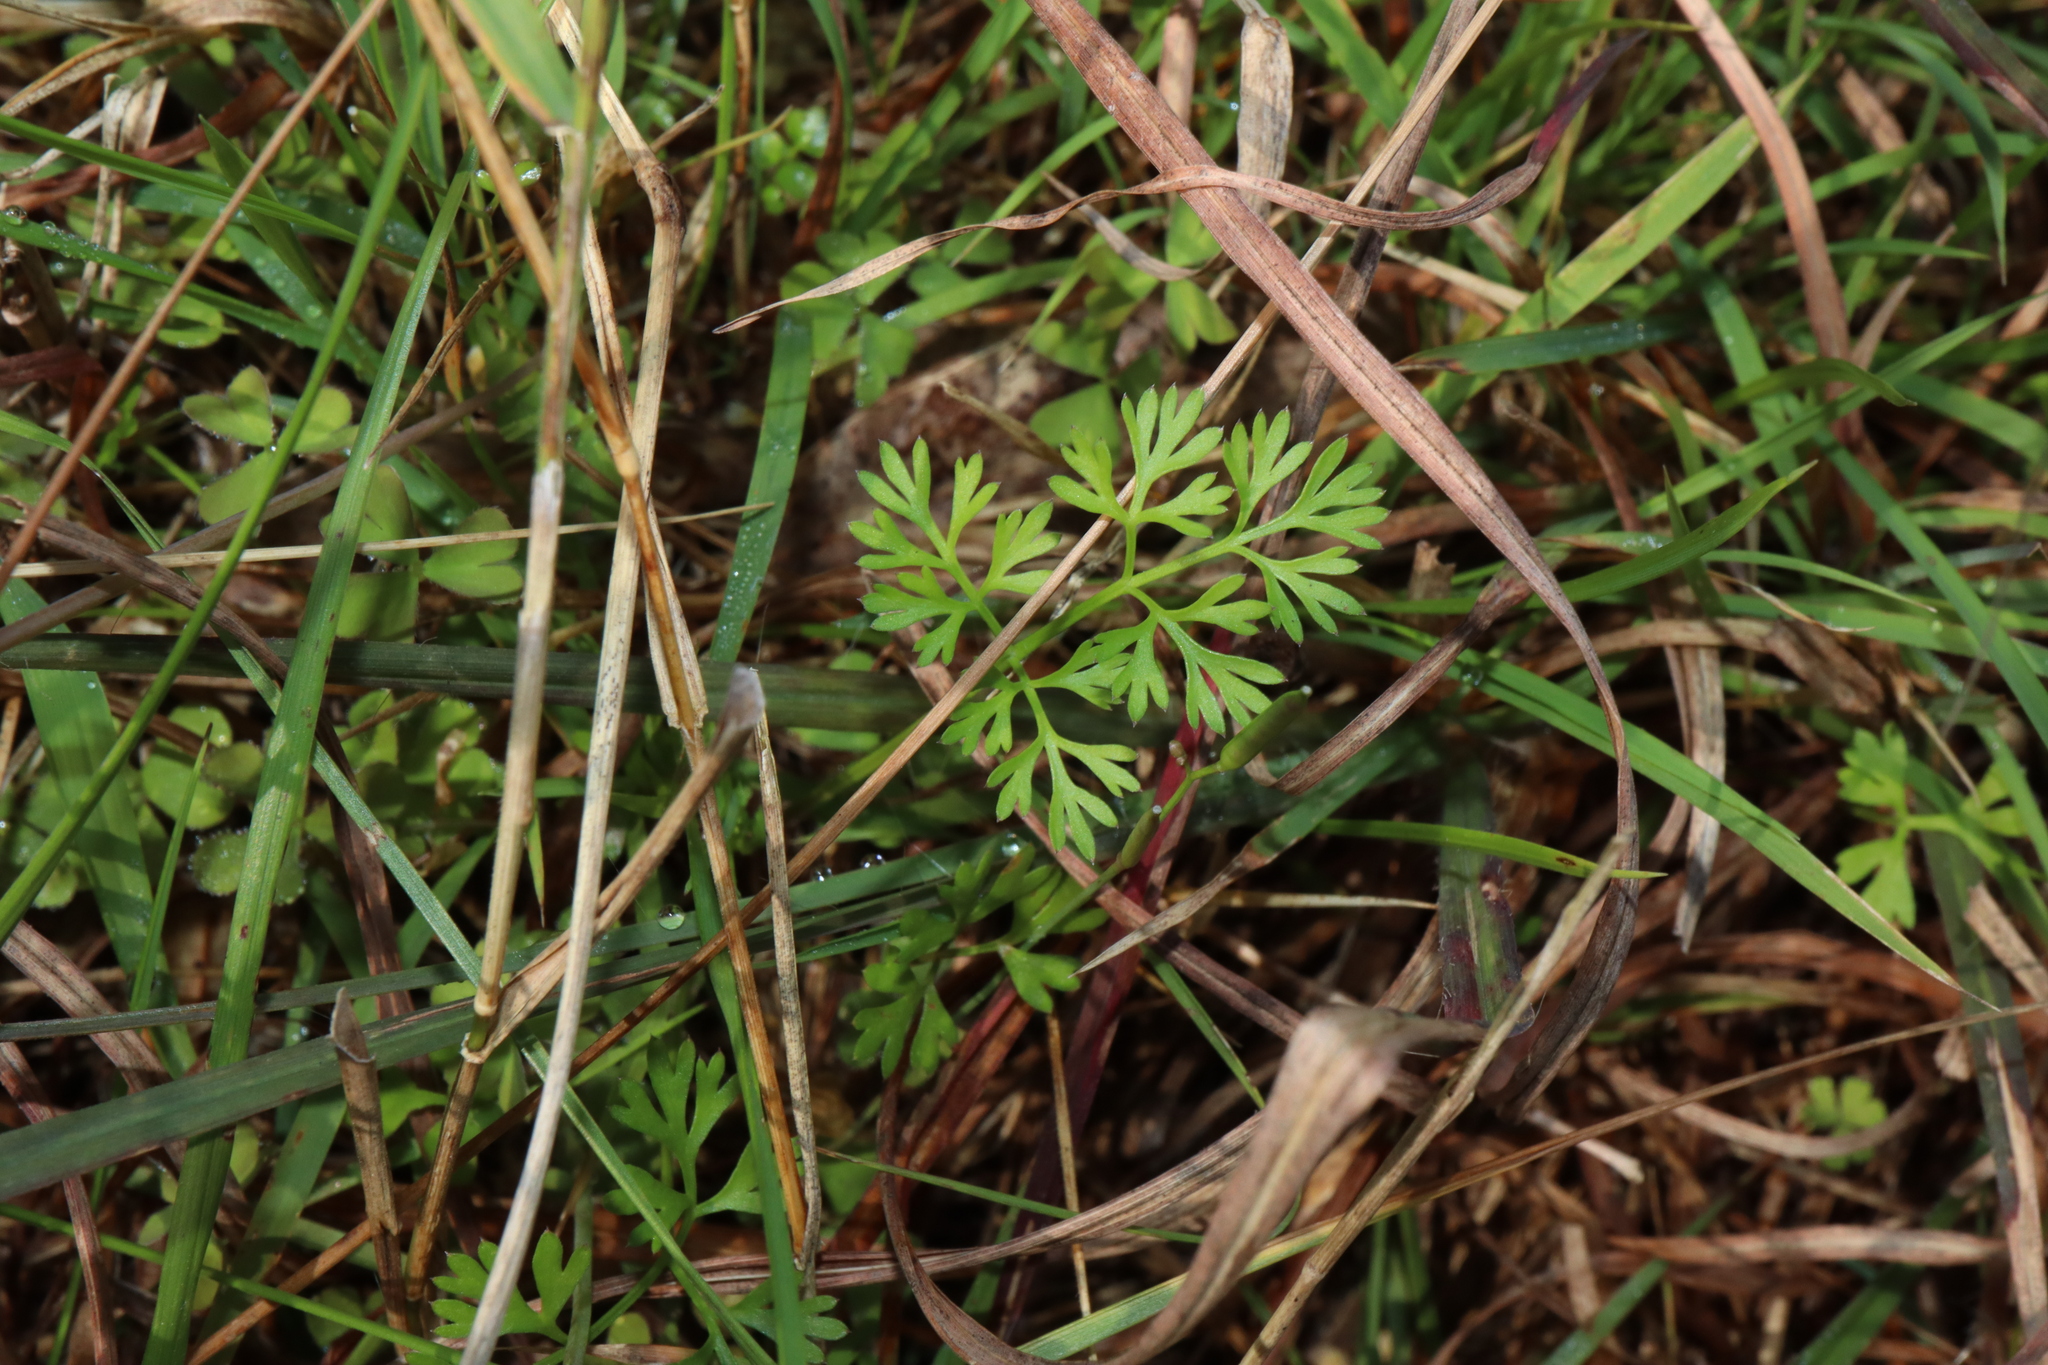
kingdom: Plantae
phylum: Tracheophyta
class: Magnoliopsida
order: Apiales
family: Apiaceae
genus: Cyclospermum
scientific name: Cyclospermum leptophyllum
